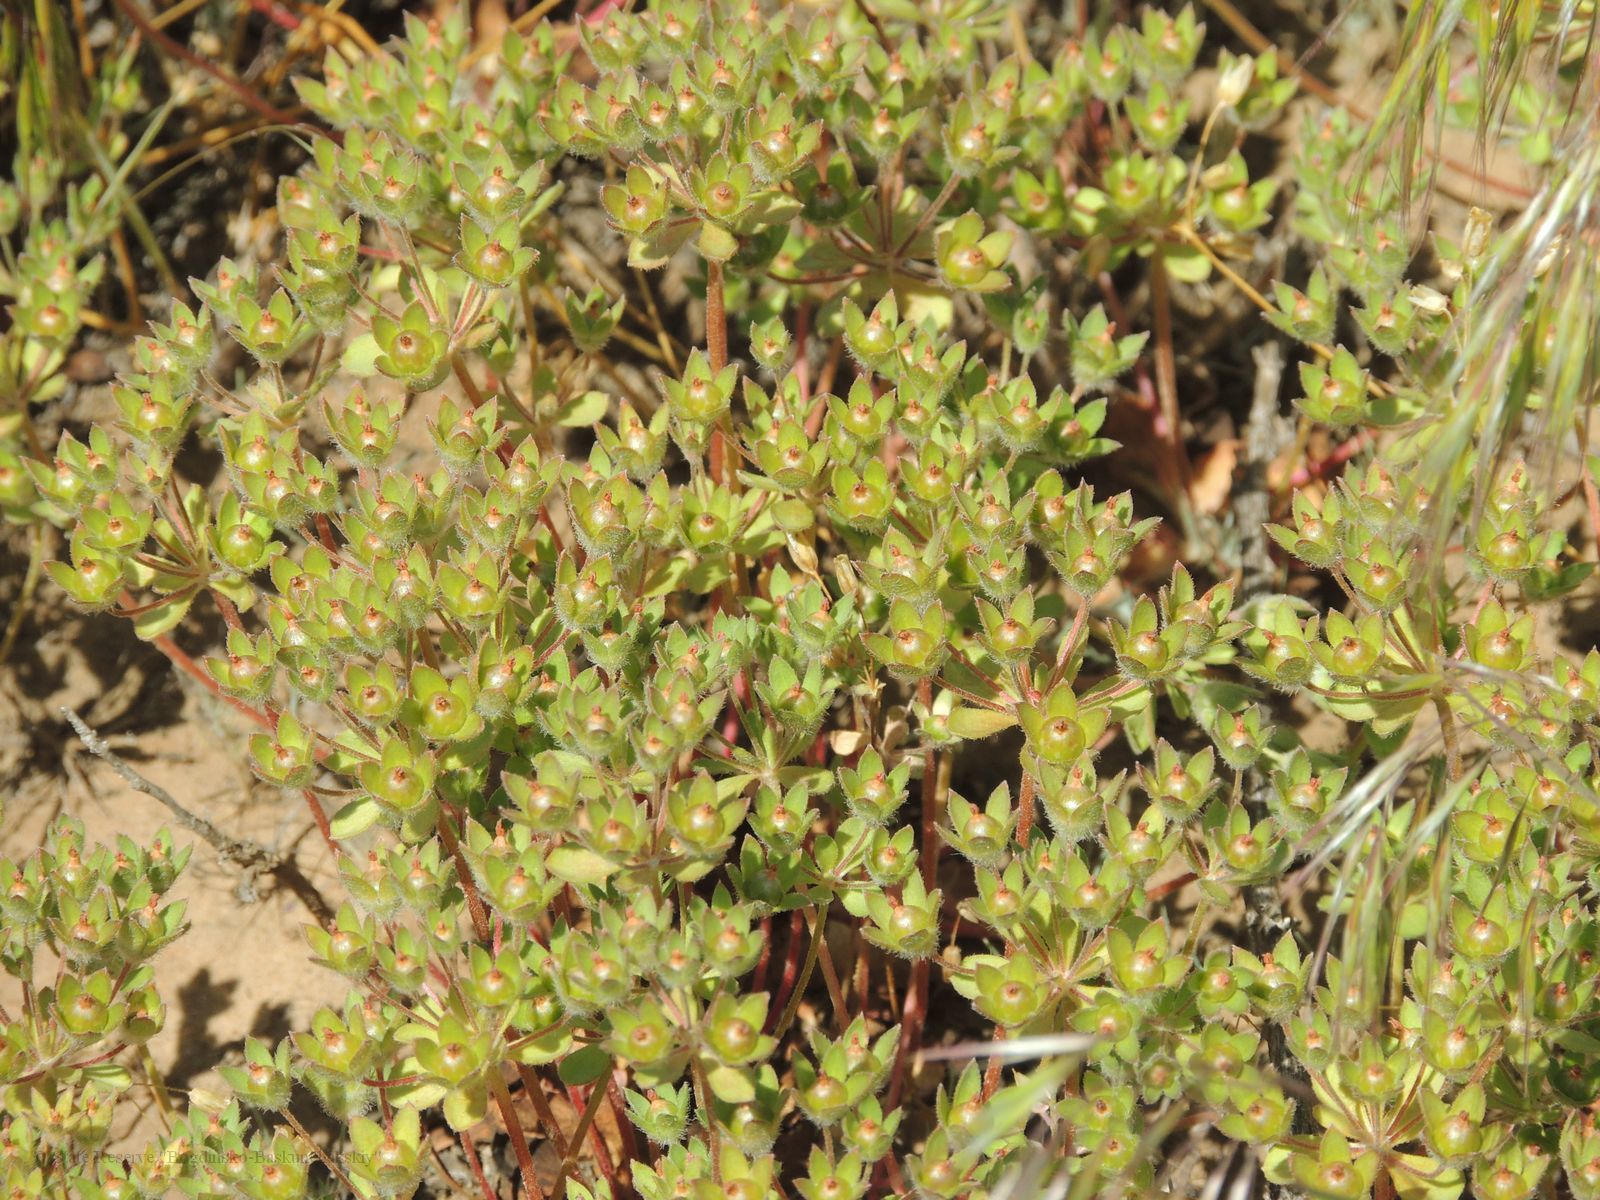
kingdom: Plantae
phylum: Tracheophyta
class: Magnoliopsida
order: Ericales
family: Primulaceae
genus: Androsace
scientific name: Androsace maxima
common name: Annual androsace
